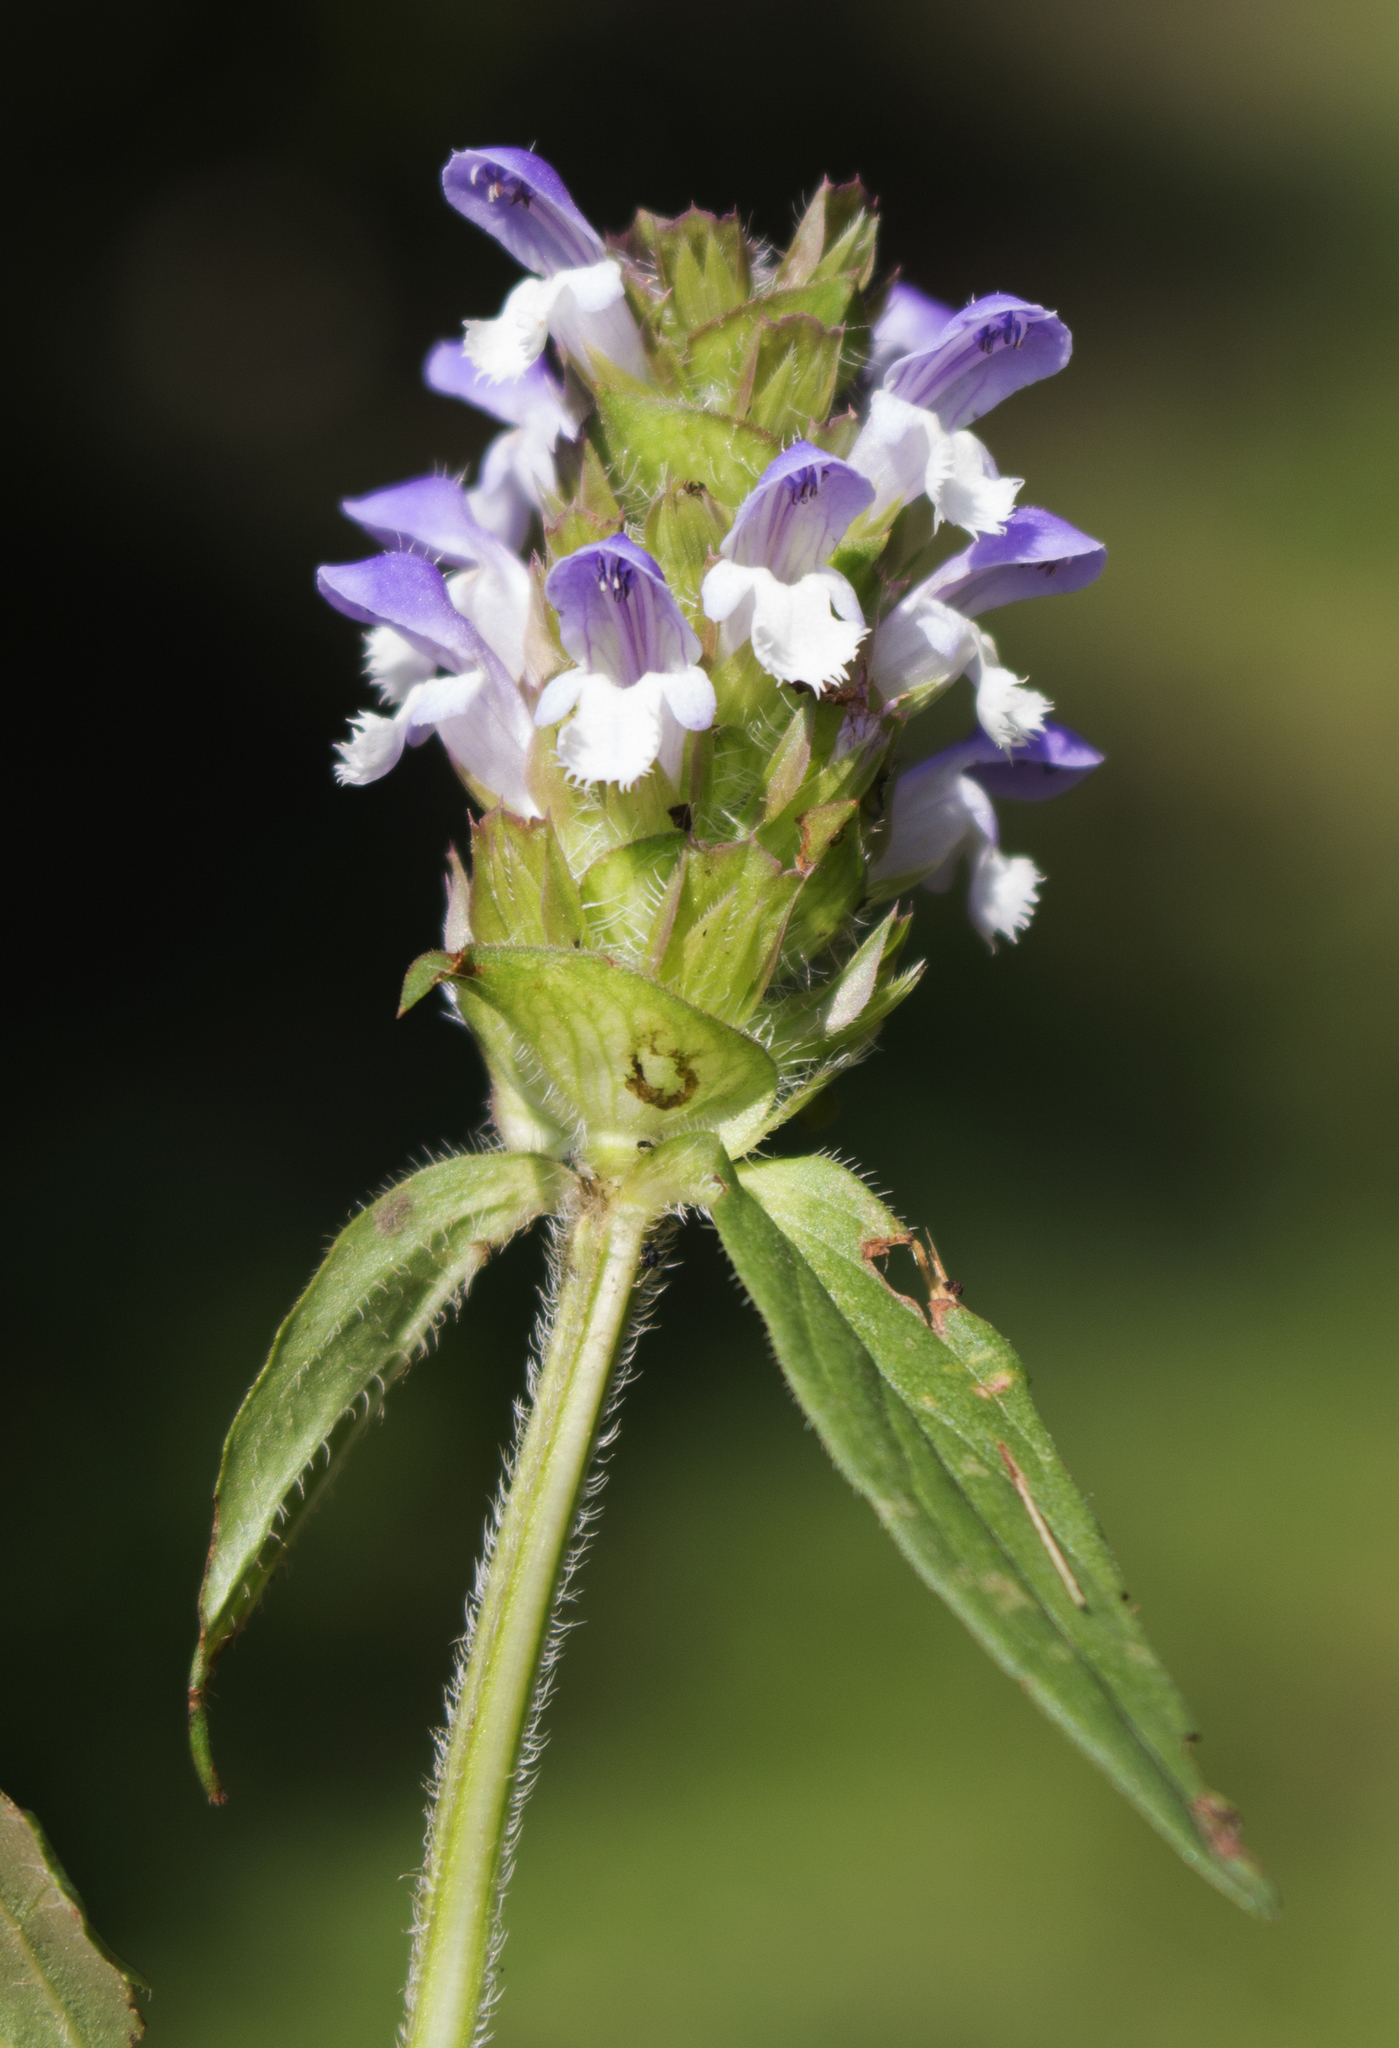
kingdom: Plantae
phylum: Tracheophyta
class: Magnoliopsida
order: Lamiales
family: Lamiaceae
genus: Prunella
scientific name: Prunella vulgaris
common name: Heal-all
